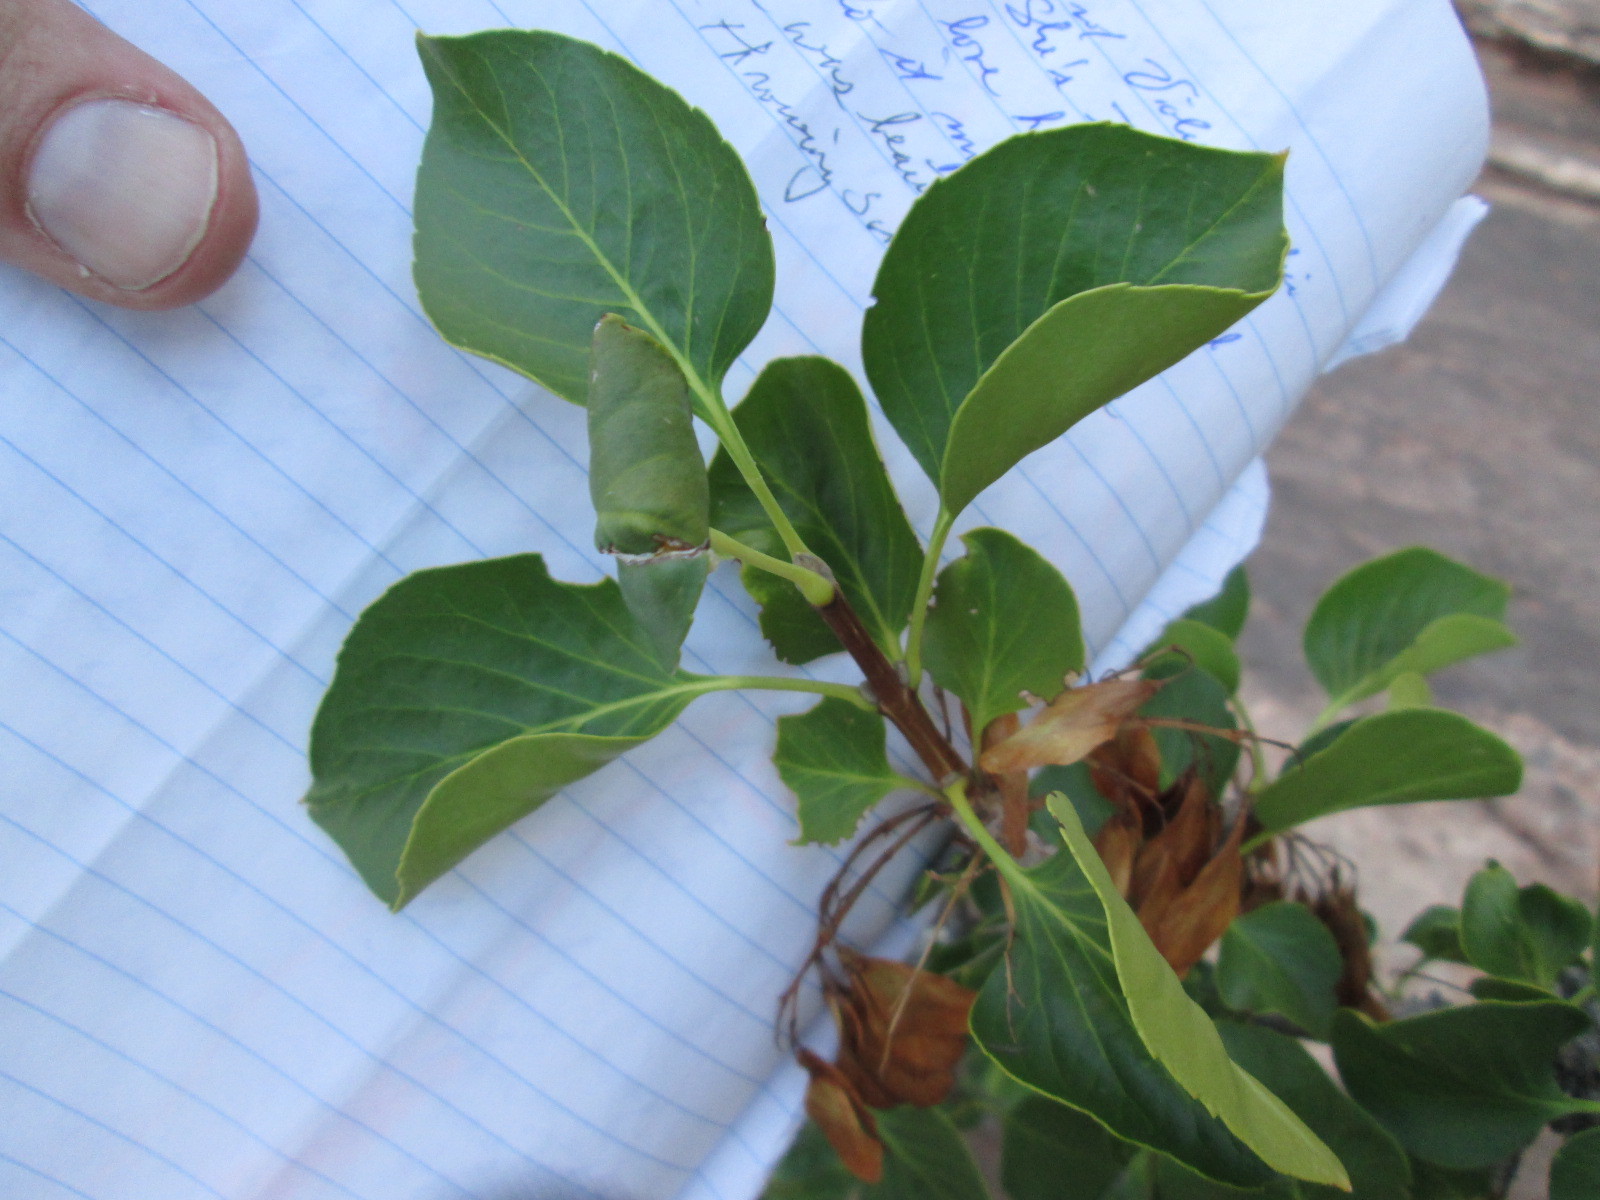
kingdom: Plantae
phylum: Tracheophyta
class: Magnoliopsida
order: Lamiales
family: Oleaceae
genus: Fraxinus
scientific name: Fraxinus anomala
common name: Utah ash
